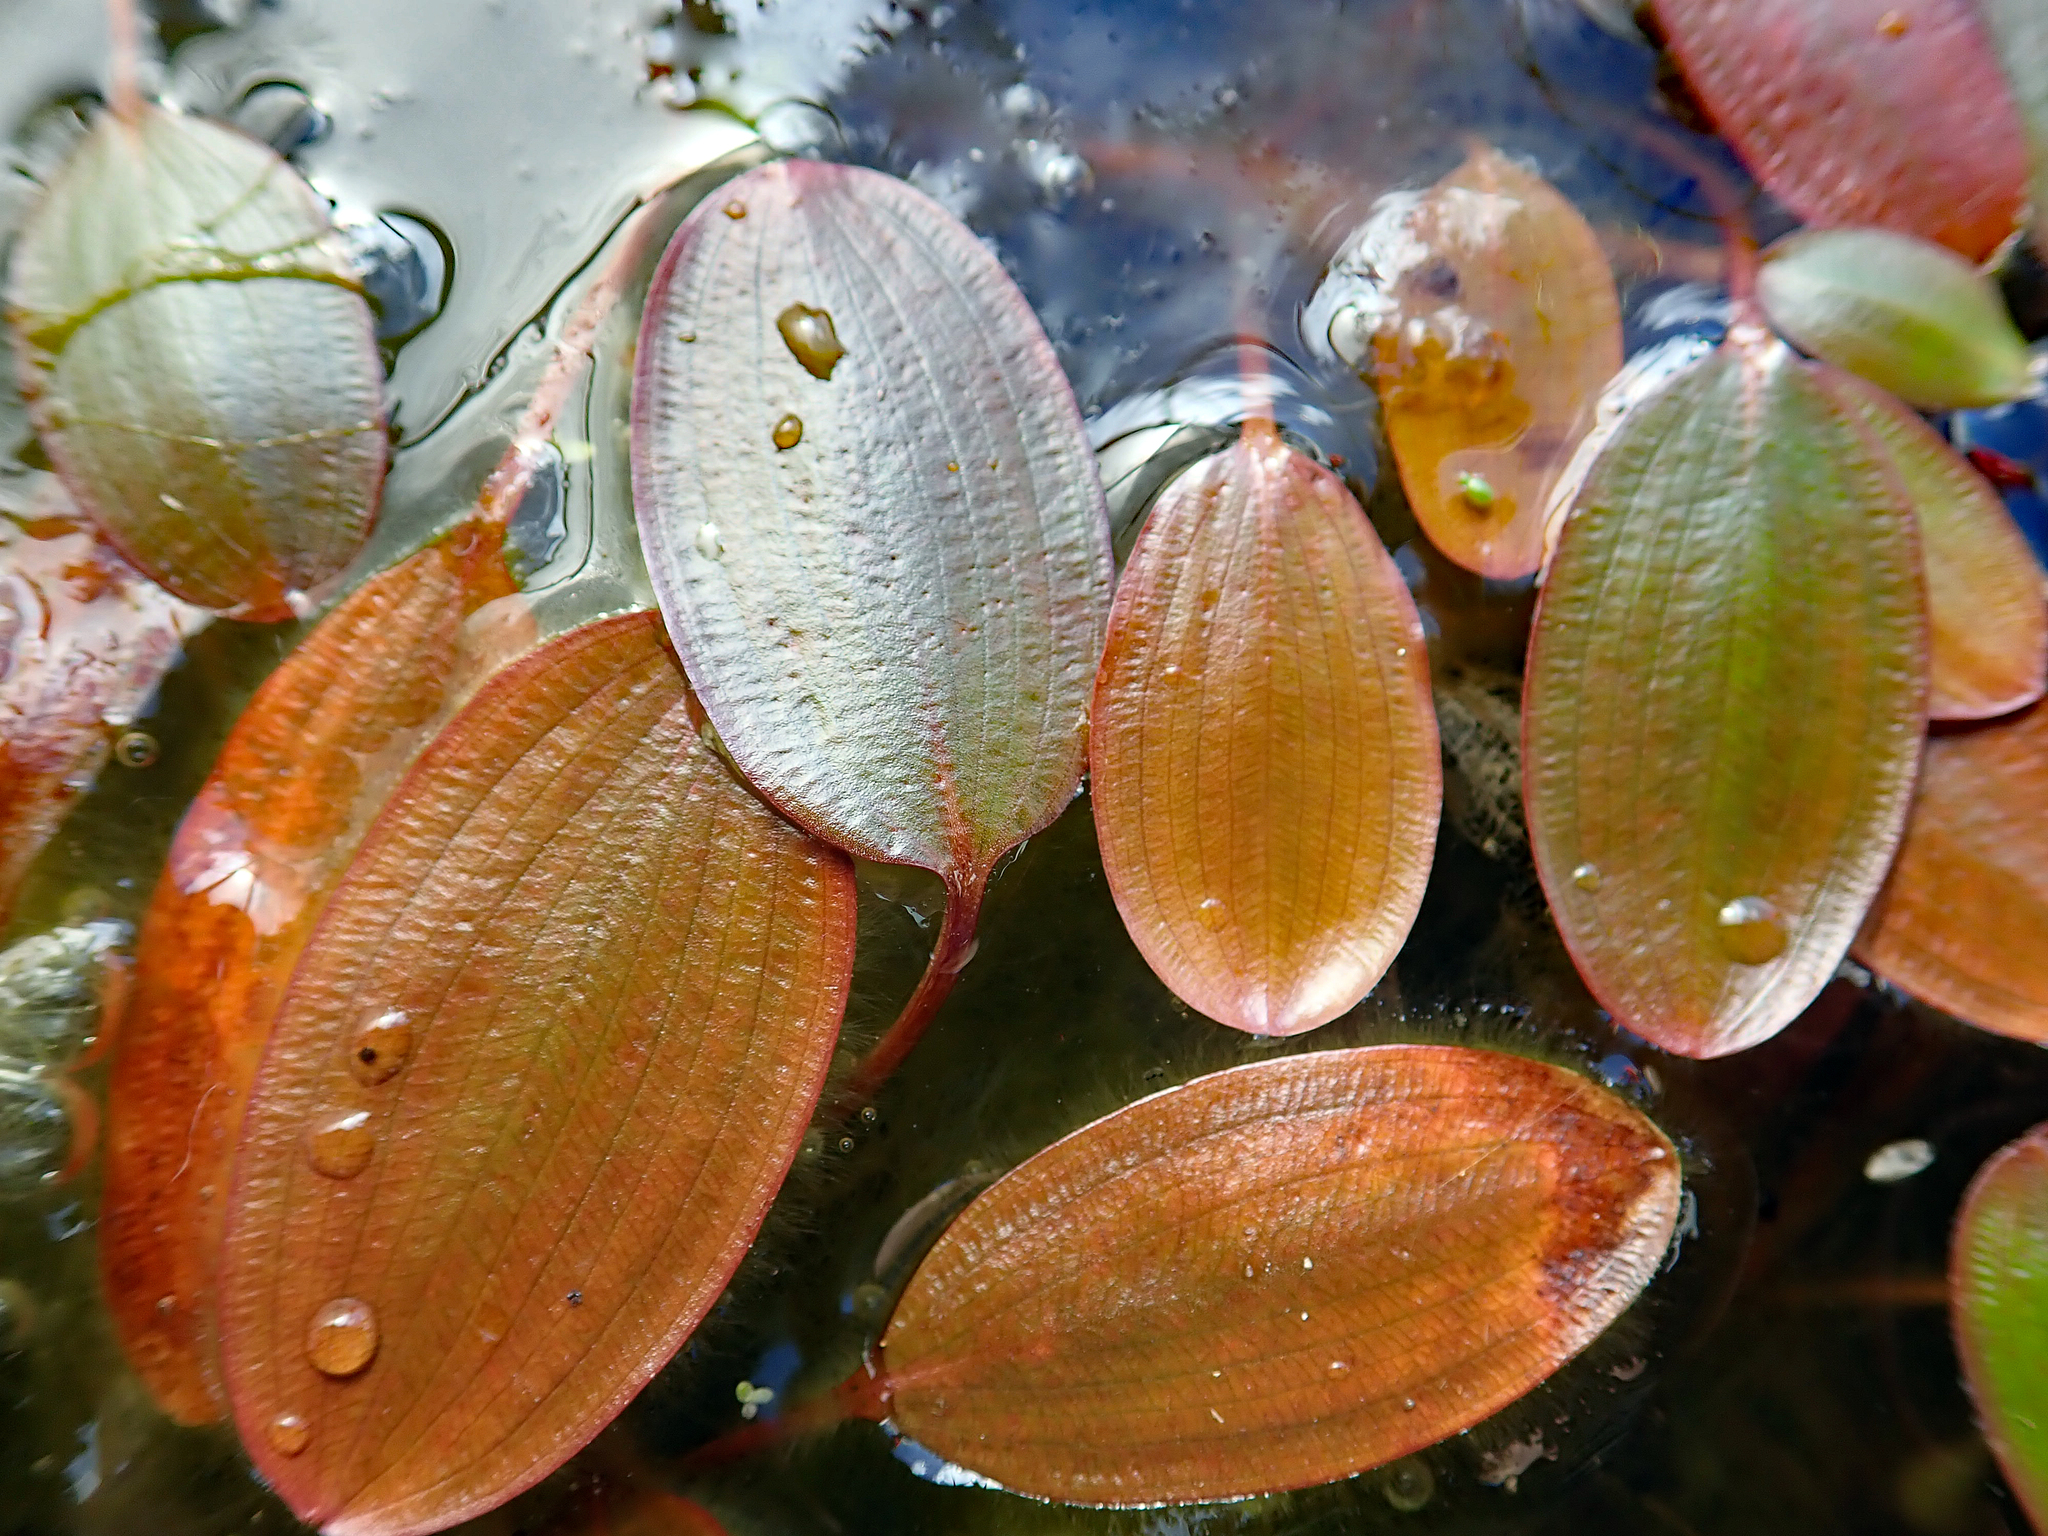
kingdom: Plantae
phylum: Tracheophyta
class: Liliopsida
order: Alismatales
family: Potamogetonaceae
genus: Potamogeton
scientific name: Potamogeton cheesemanii
